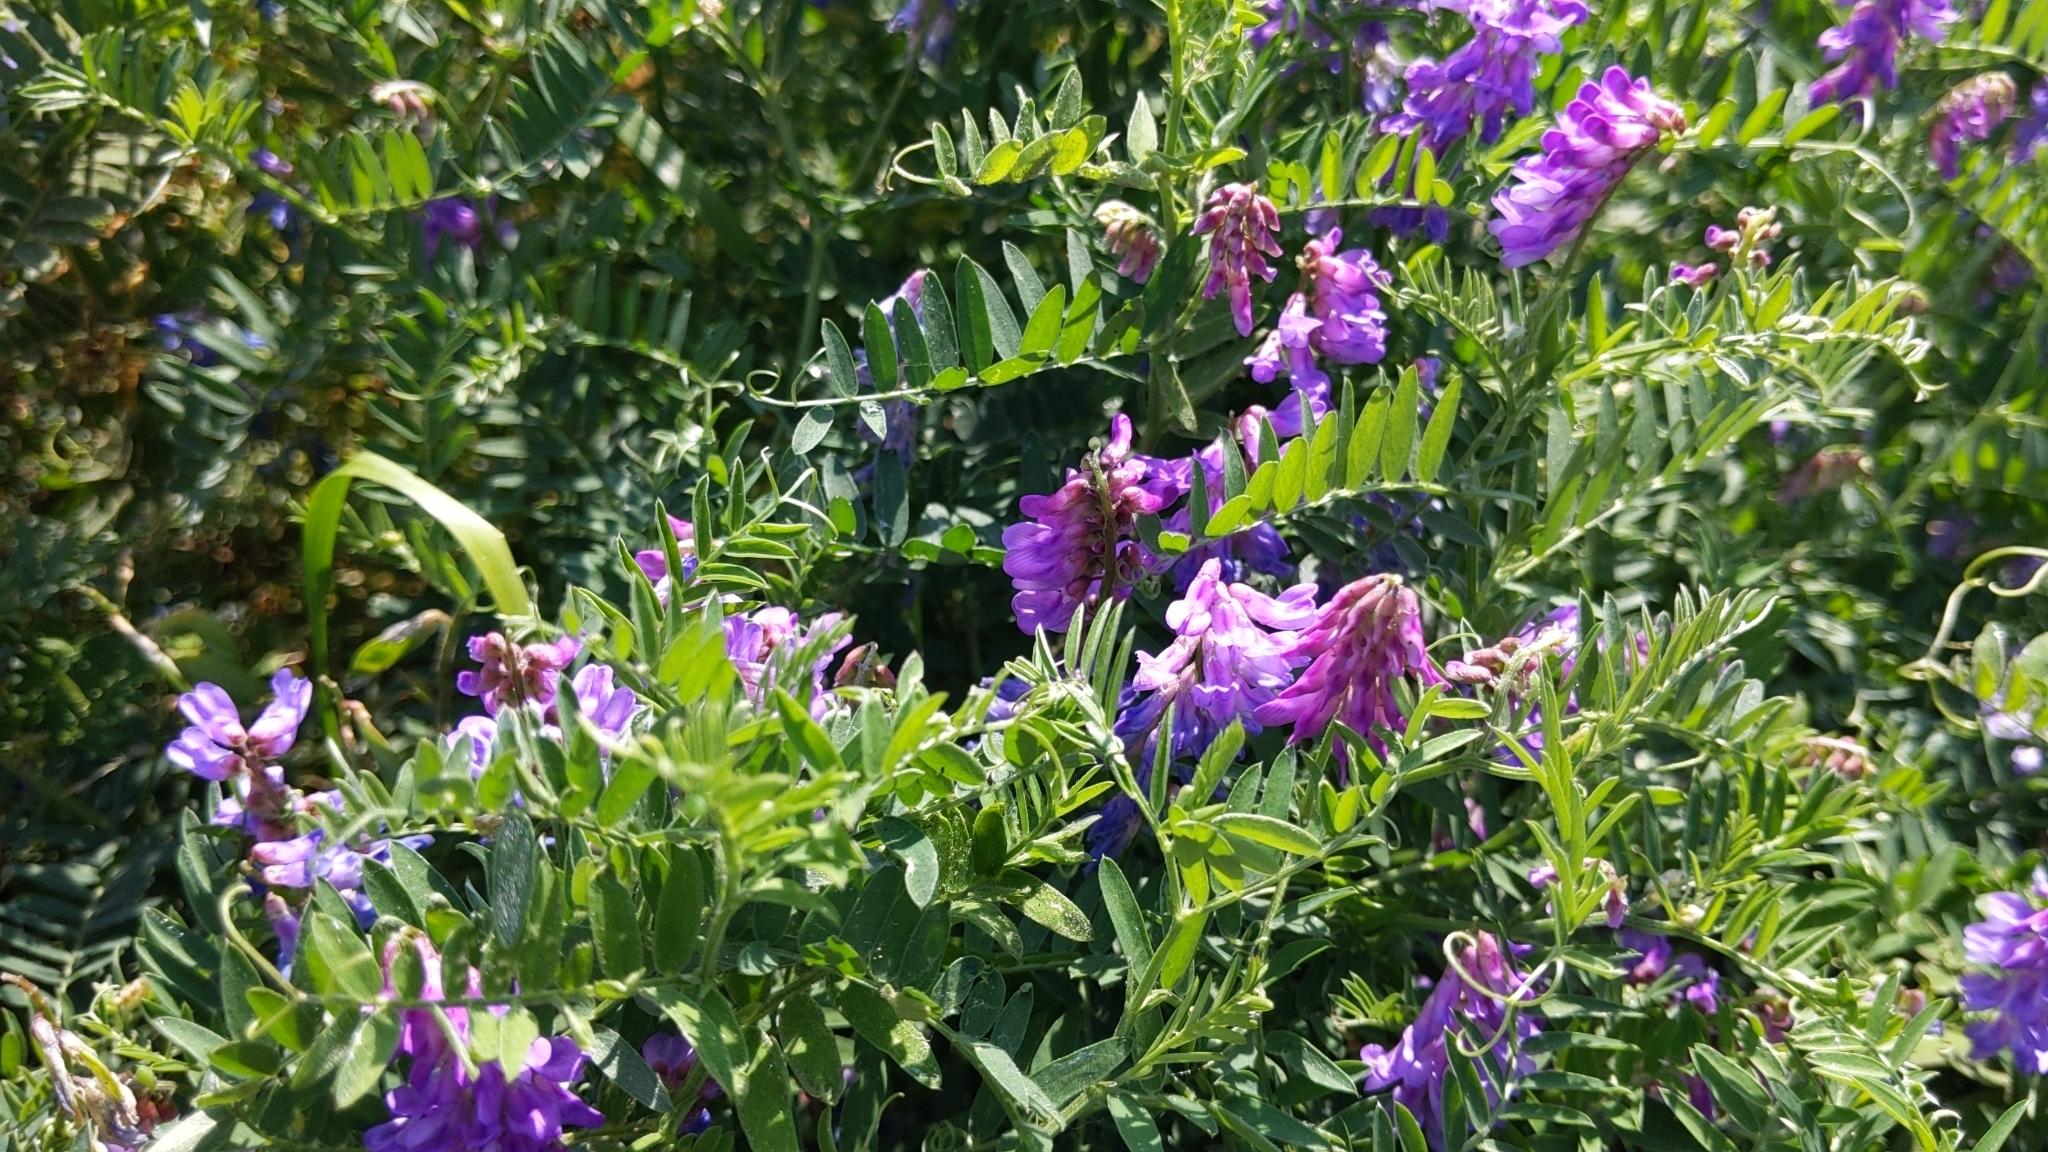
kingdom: Plantae
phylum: Tracheophyta
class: Magnoliopsida
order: Fabales
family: Fabaceae
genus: Vicia
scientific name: Vicia cracca
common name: Bird vetch
